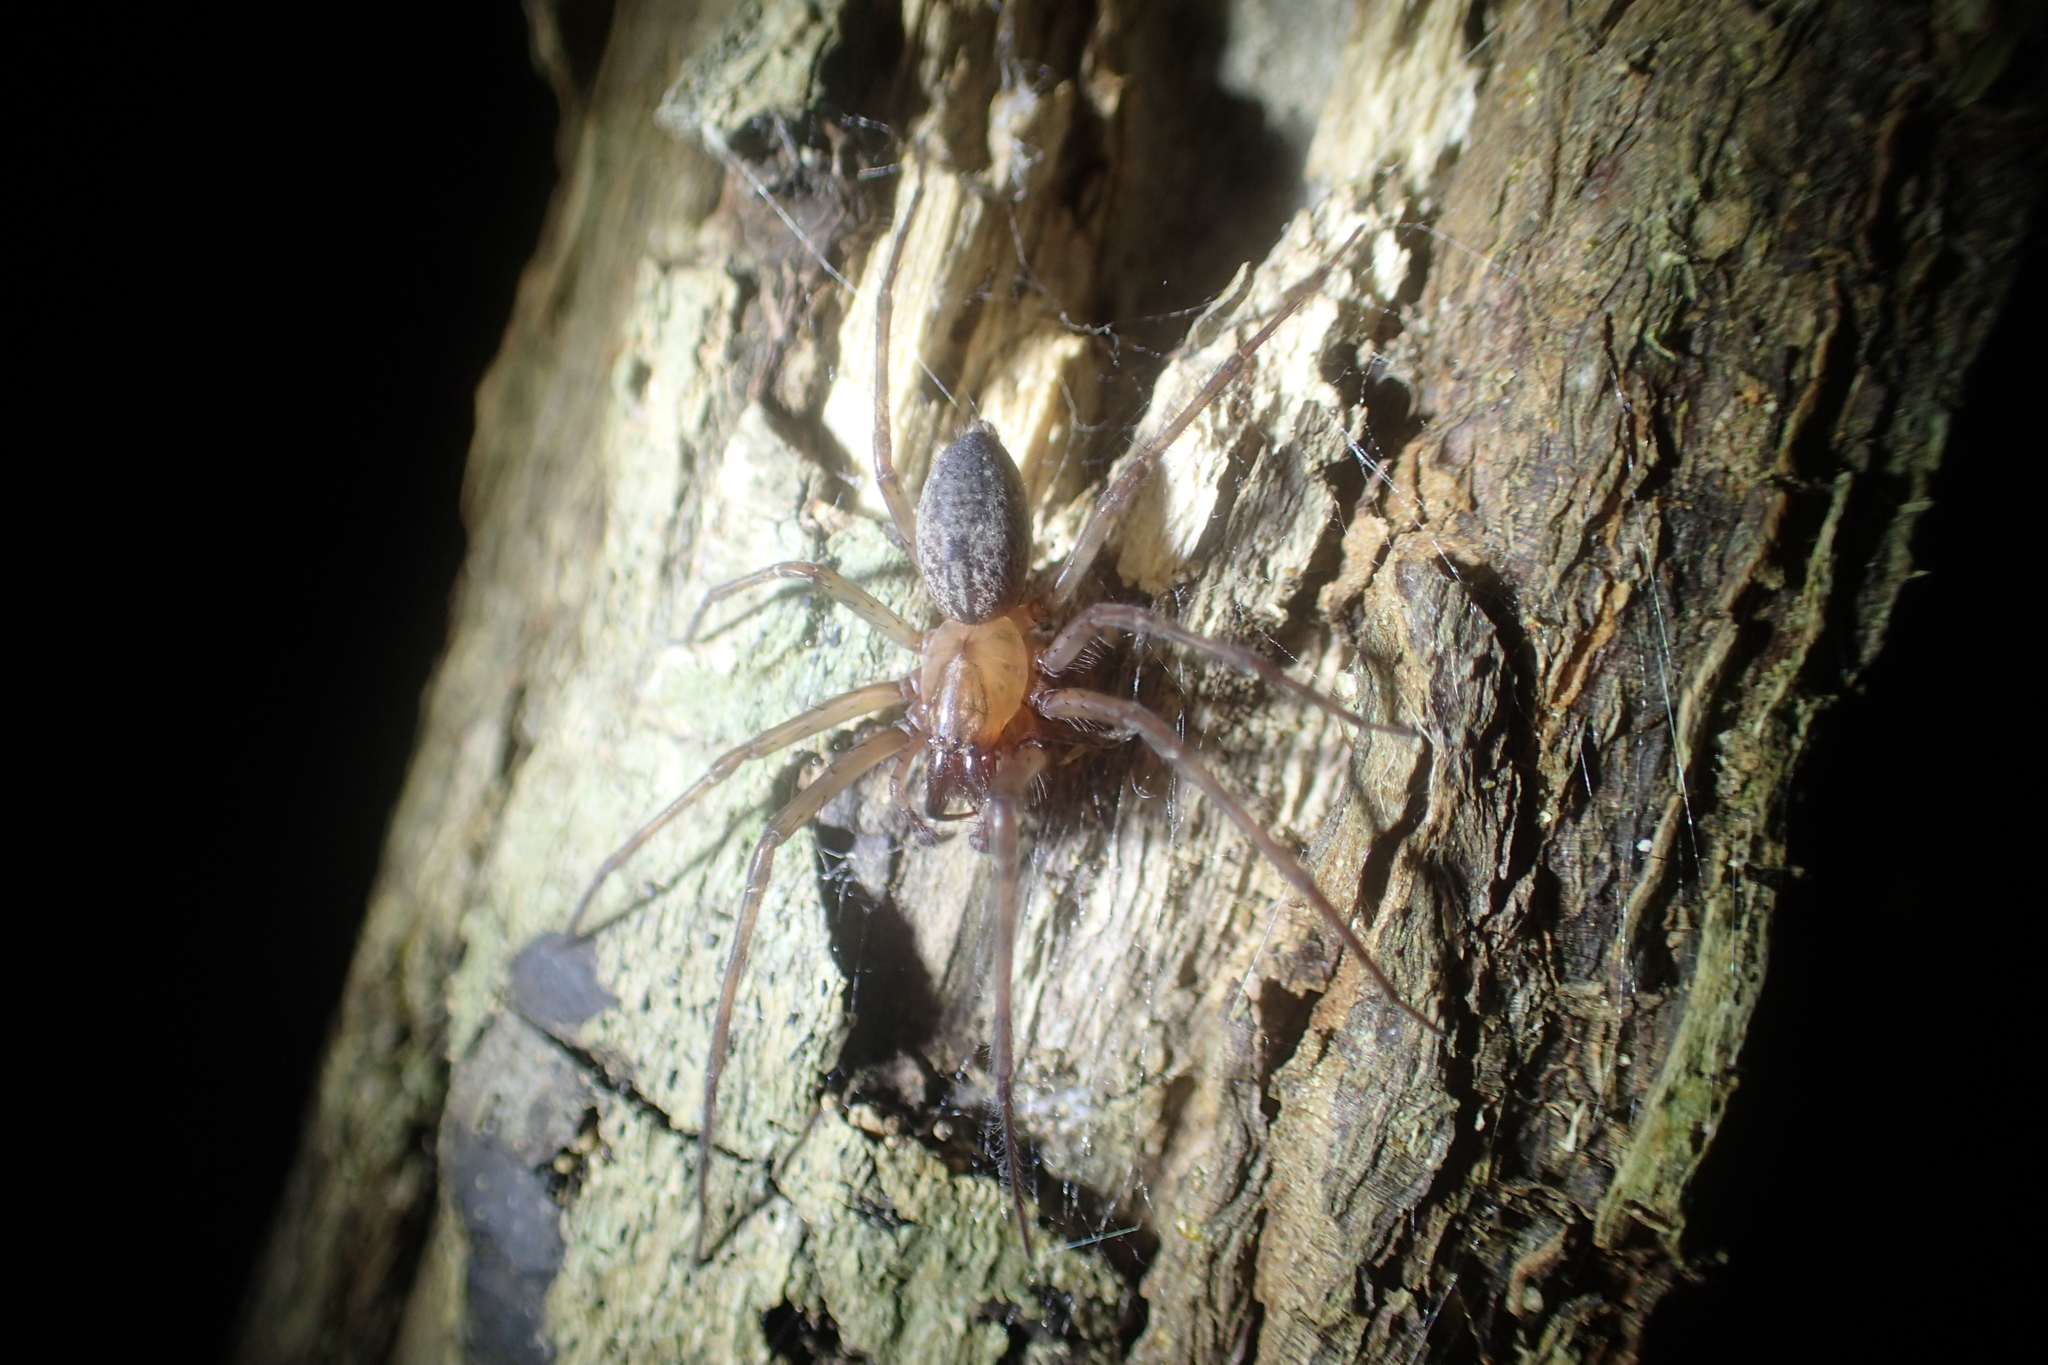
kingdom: Animalia
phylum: Arthropoda
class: Arachnida
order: Araneae
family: Desidae
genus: Nuisiana
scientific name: Nuisiana arboris
